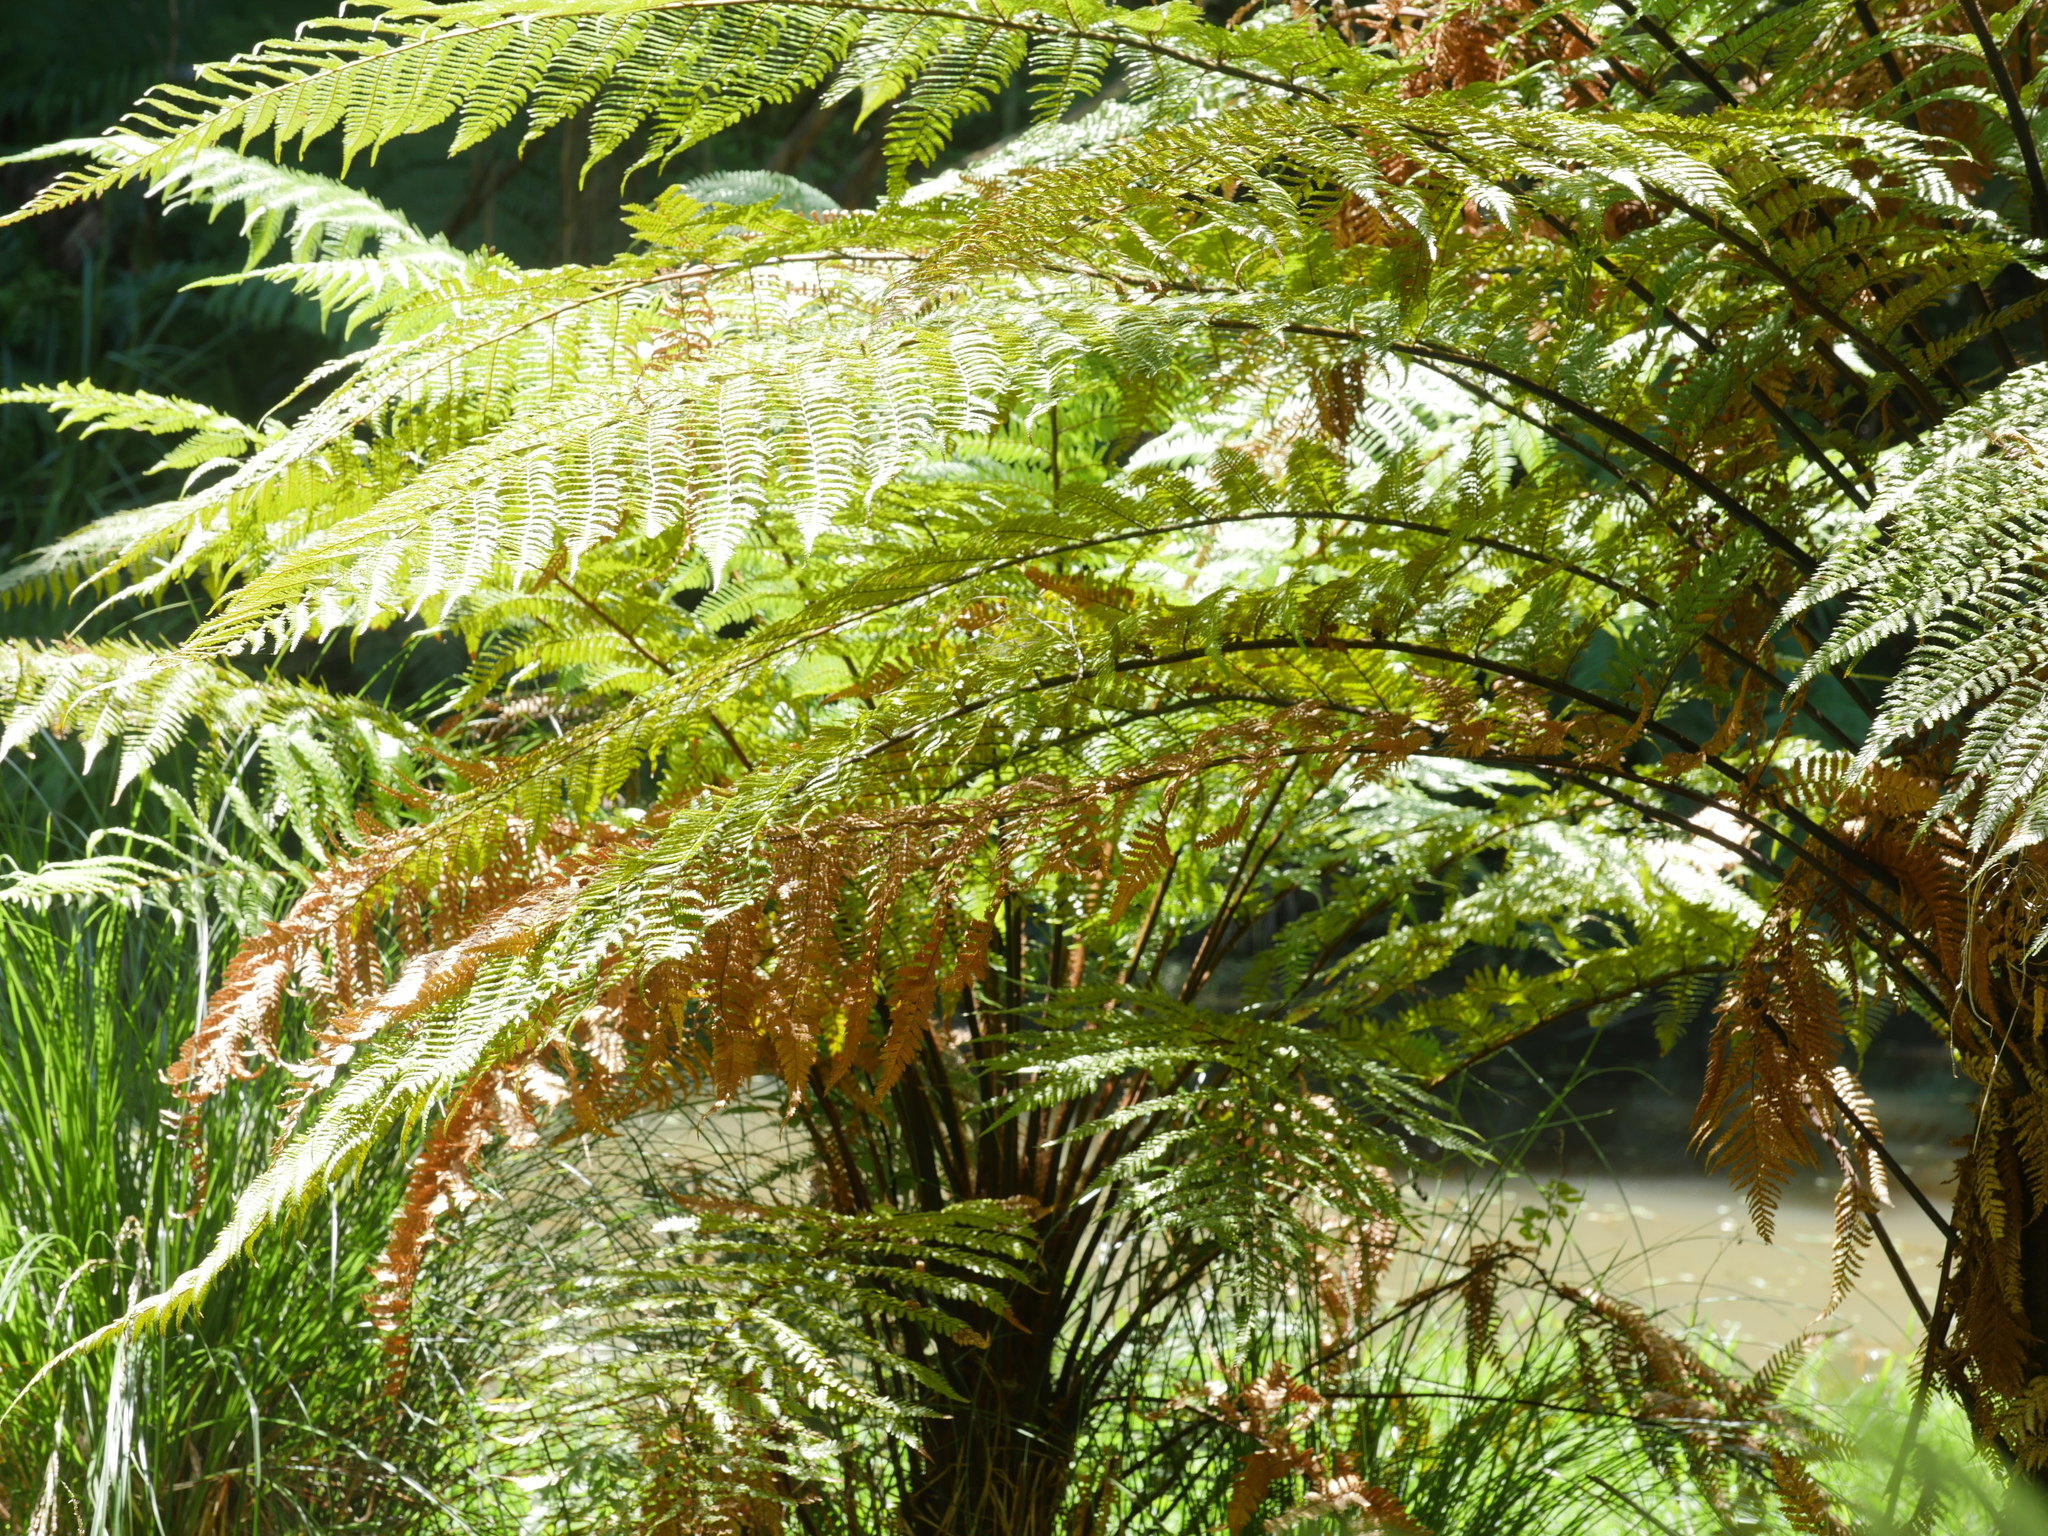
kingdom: Plantae
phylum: Tracheophyta
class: Polypodiopsida
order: Cyatheales
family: Dicksoniaceae
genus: Dicksonia
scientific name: Dicksonia squarrosa
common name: Hard treefern
